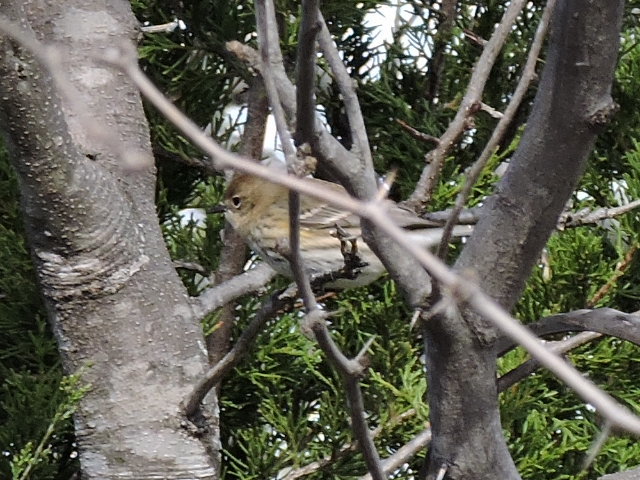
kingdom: Animalia
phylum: Chordata
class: Aves
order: Passeriformes
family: Parulidae
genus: Setophaga
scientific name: Setophaga coronata
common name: Myrtle warbler
